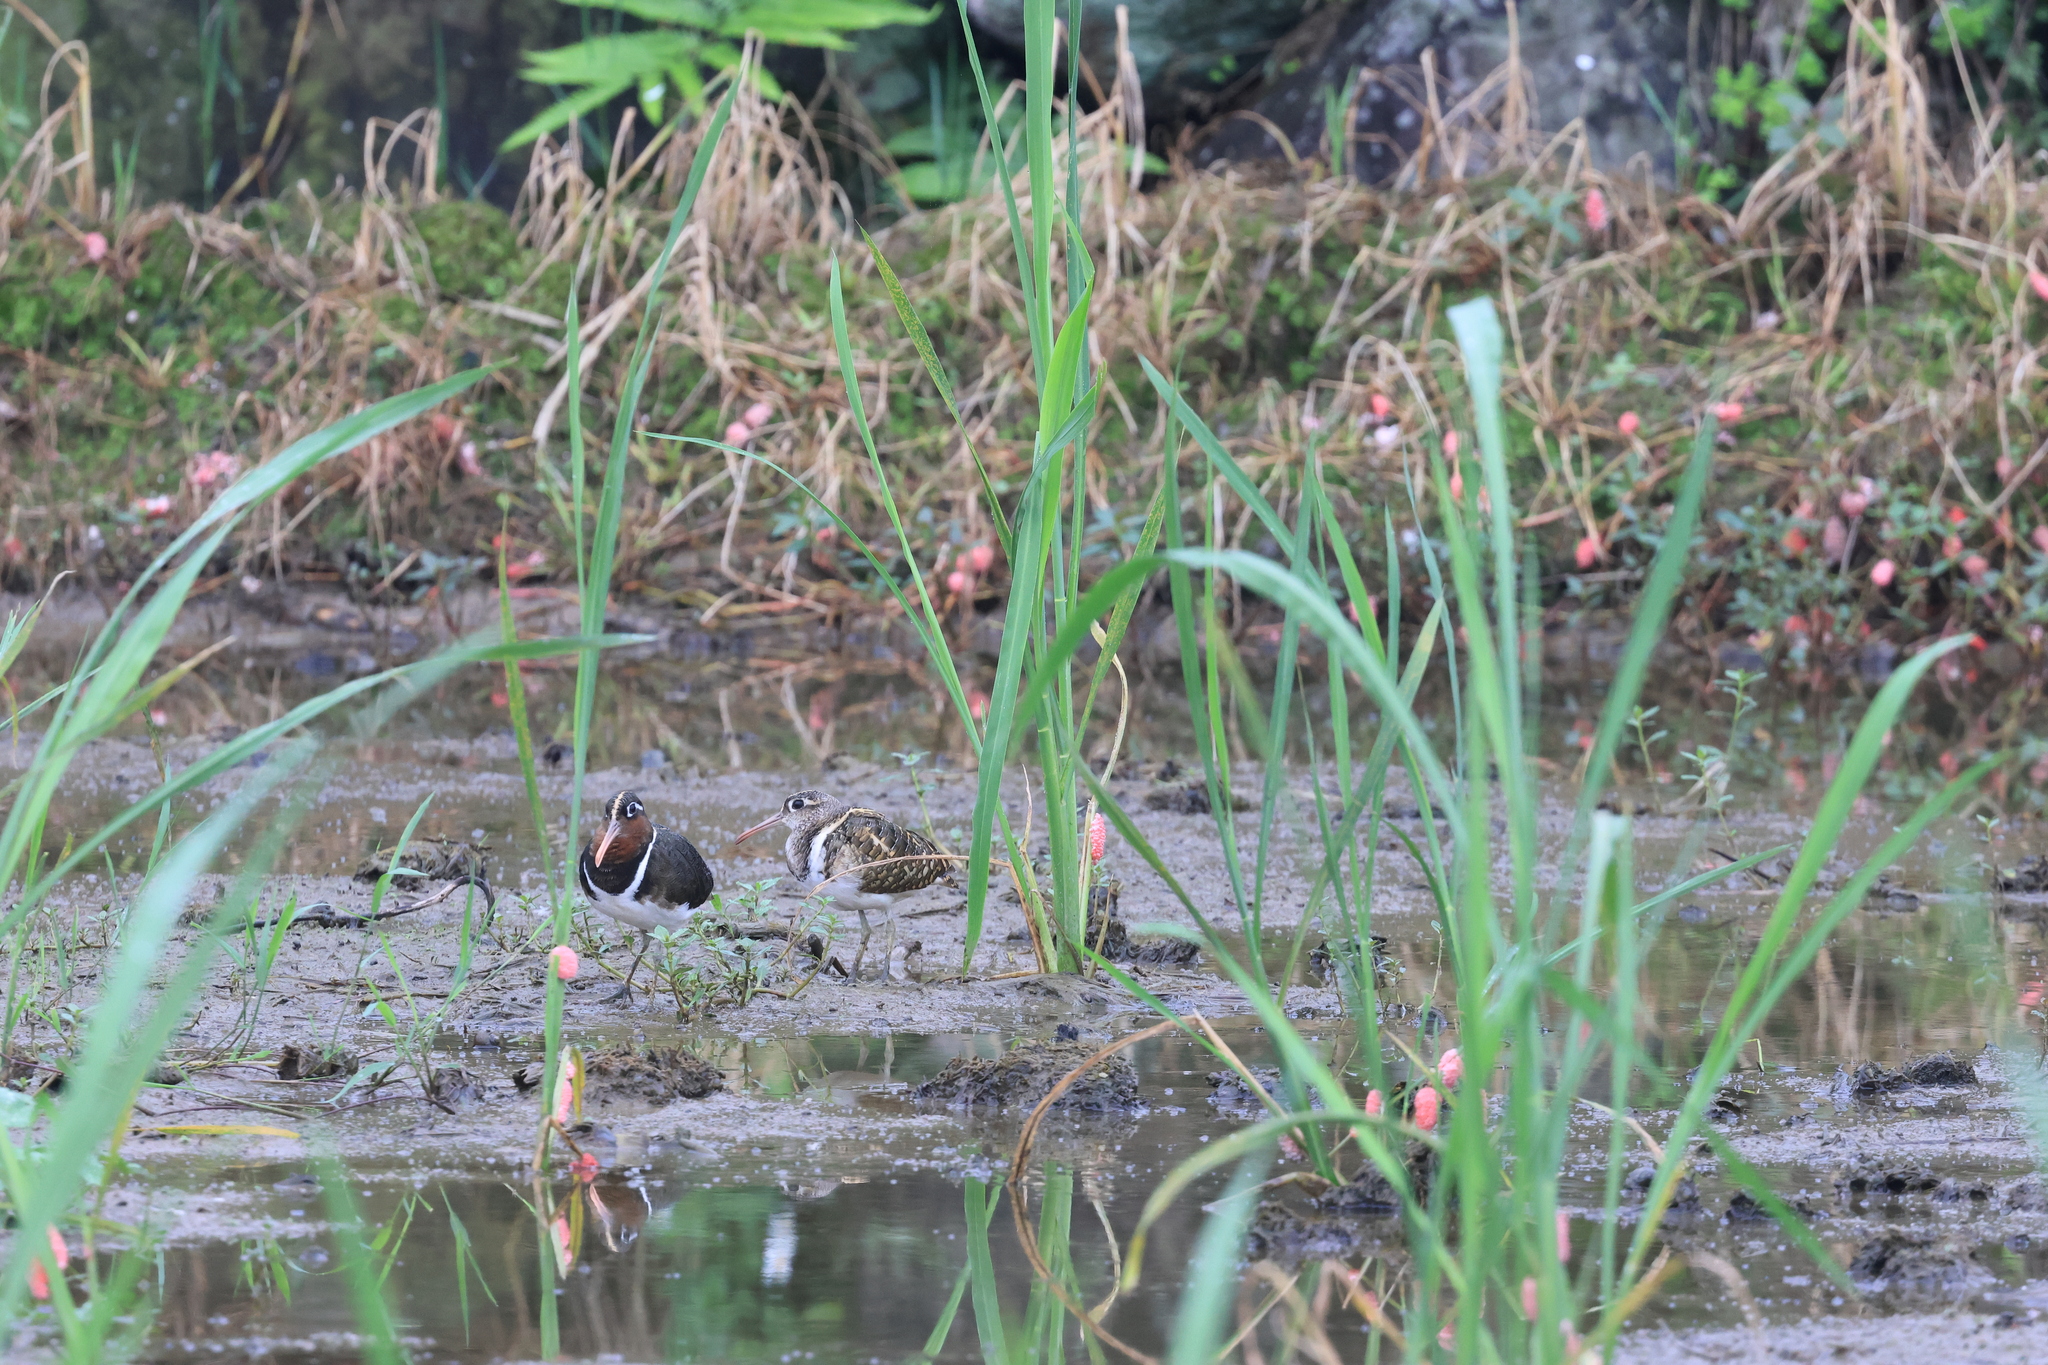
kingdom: Animalia
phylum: Chordata
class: Aves
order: Charadriiformes
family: Rostratulidae
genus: Rostratula
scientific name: Rostratula benghalensis
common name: Greater painted-snipe
